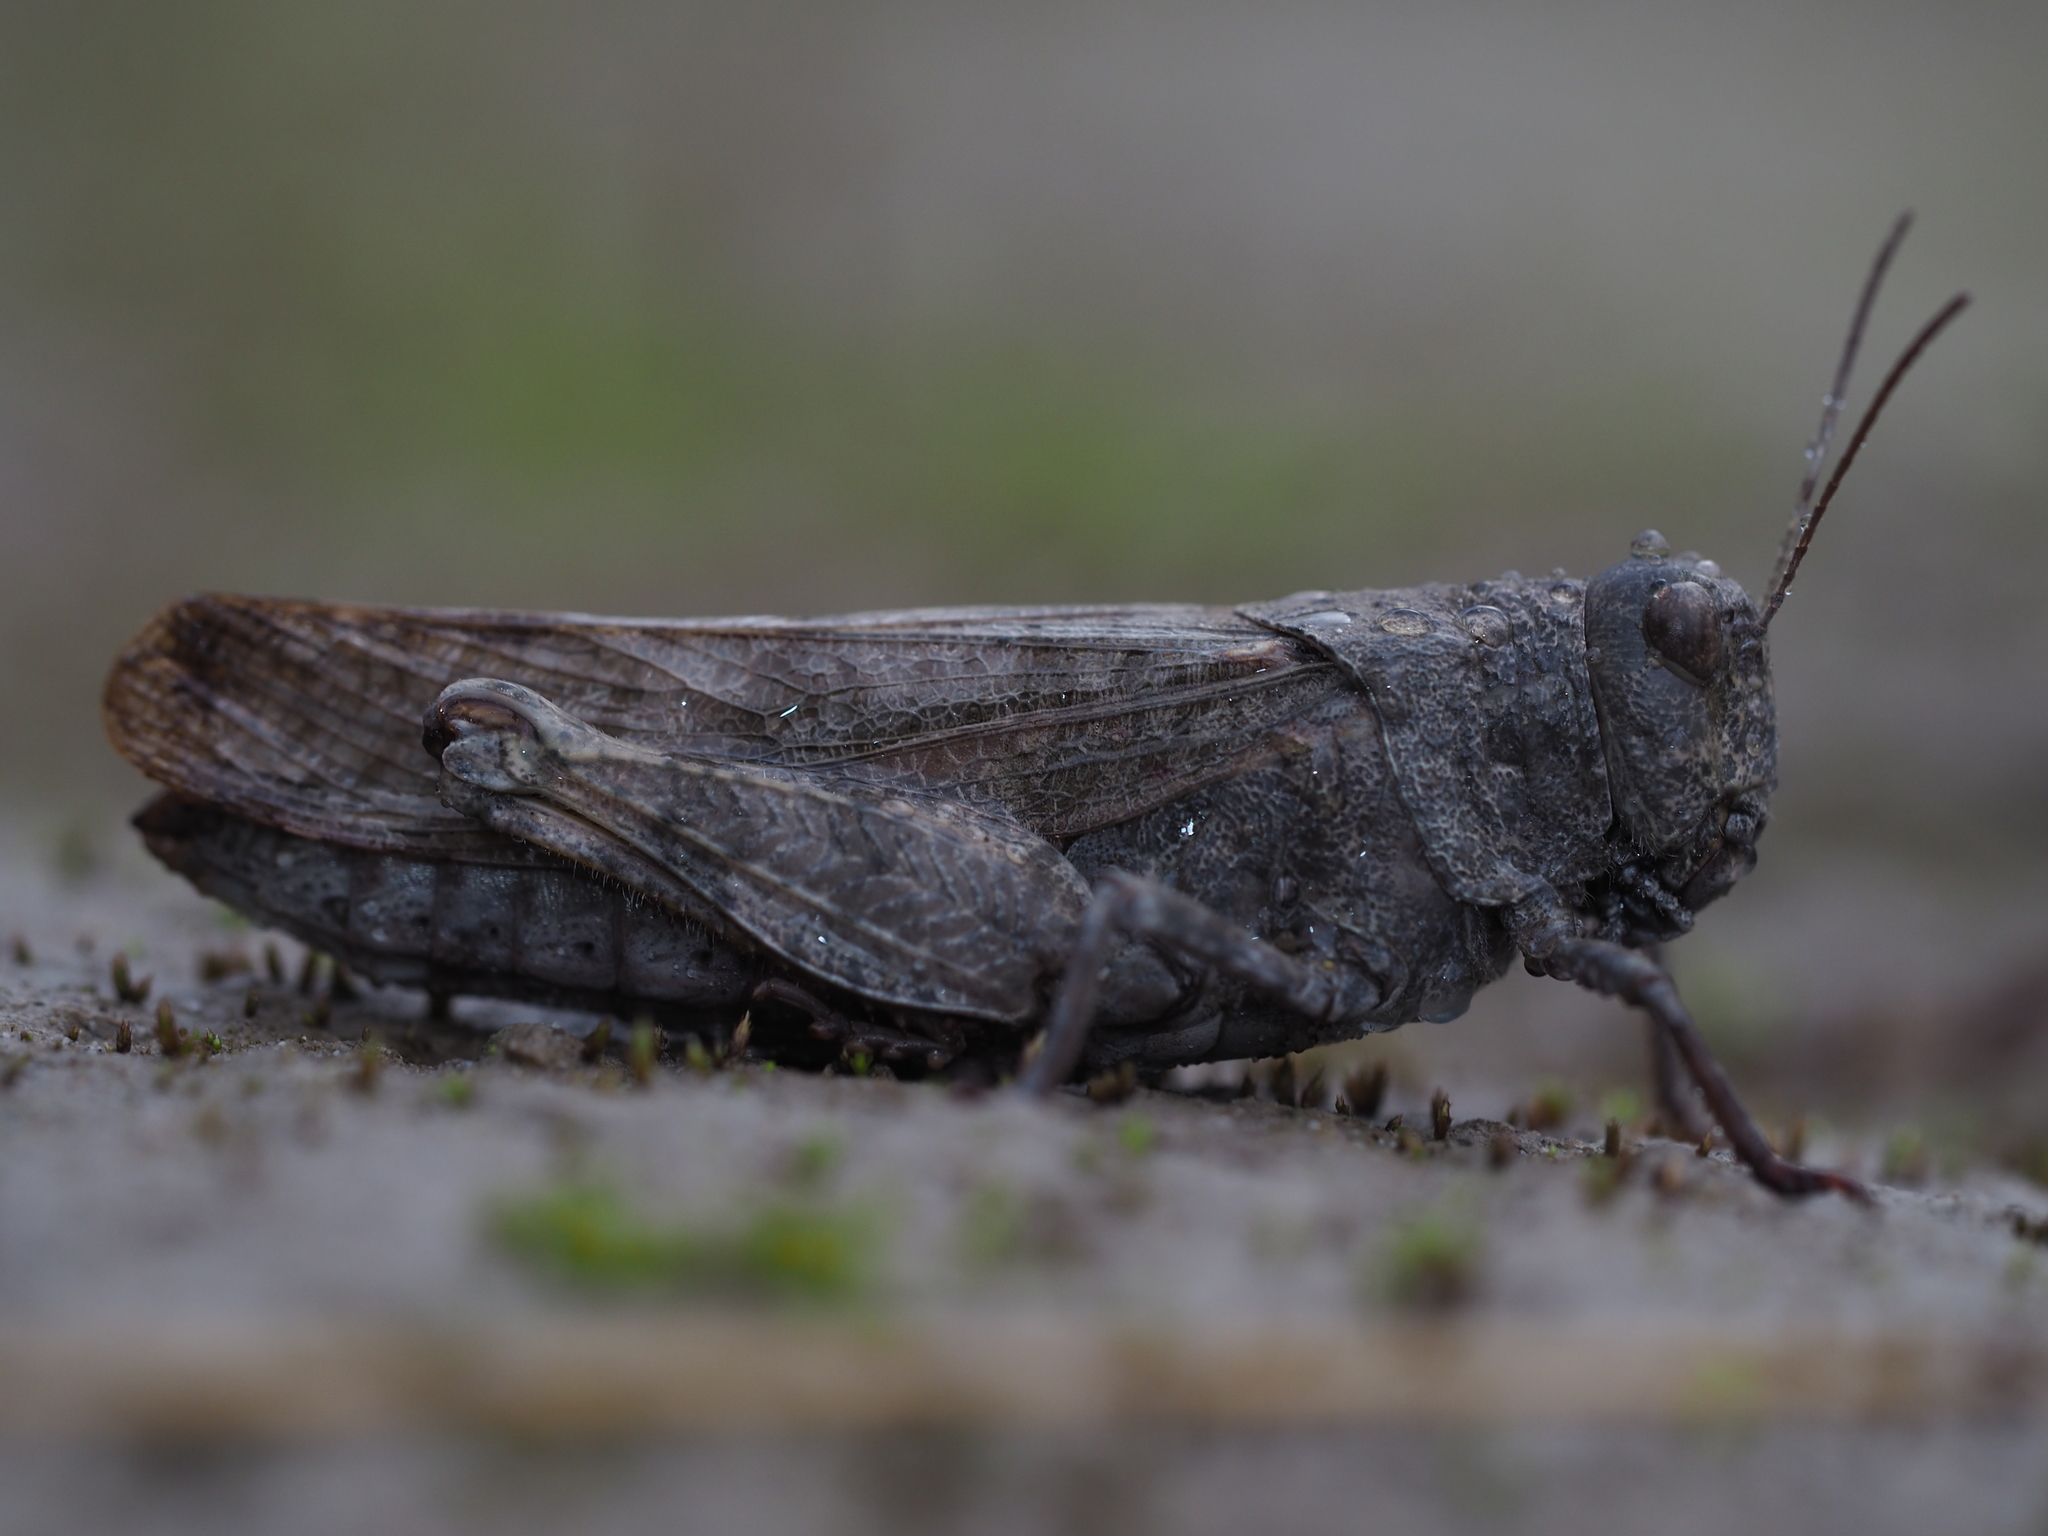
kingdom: Animalia
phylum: Arthropoda
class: Insecta
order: Orthoptera
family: Acrididae
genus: Bryodemella
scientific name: Bryodemella tuberculata
